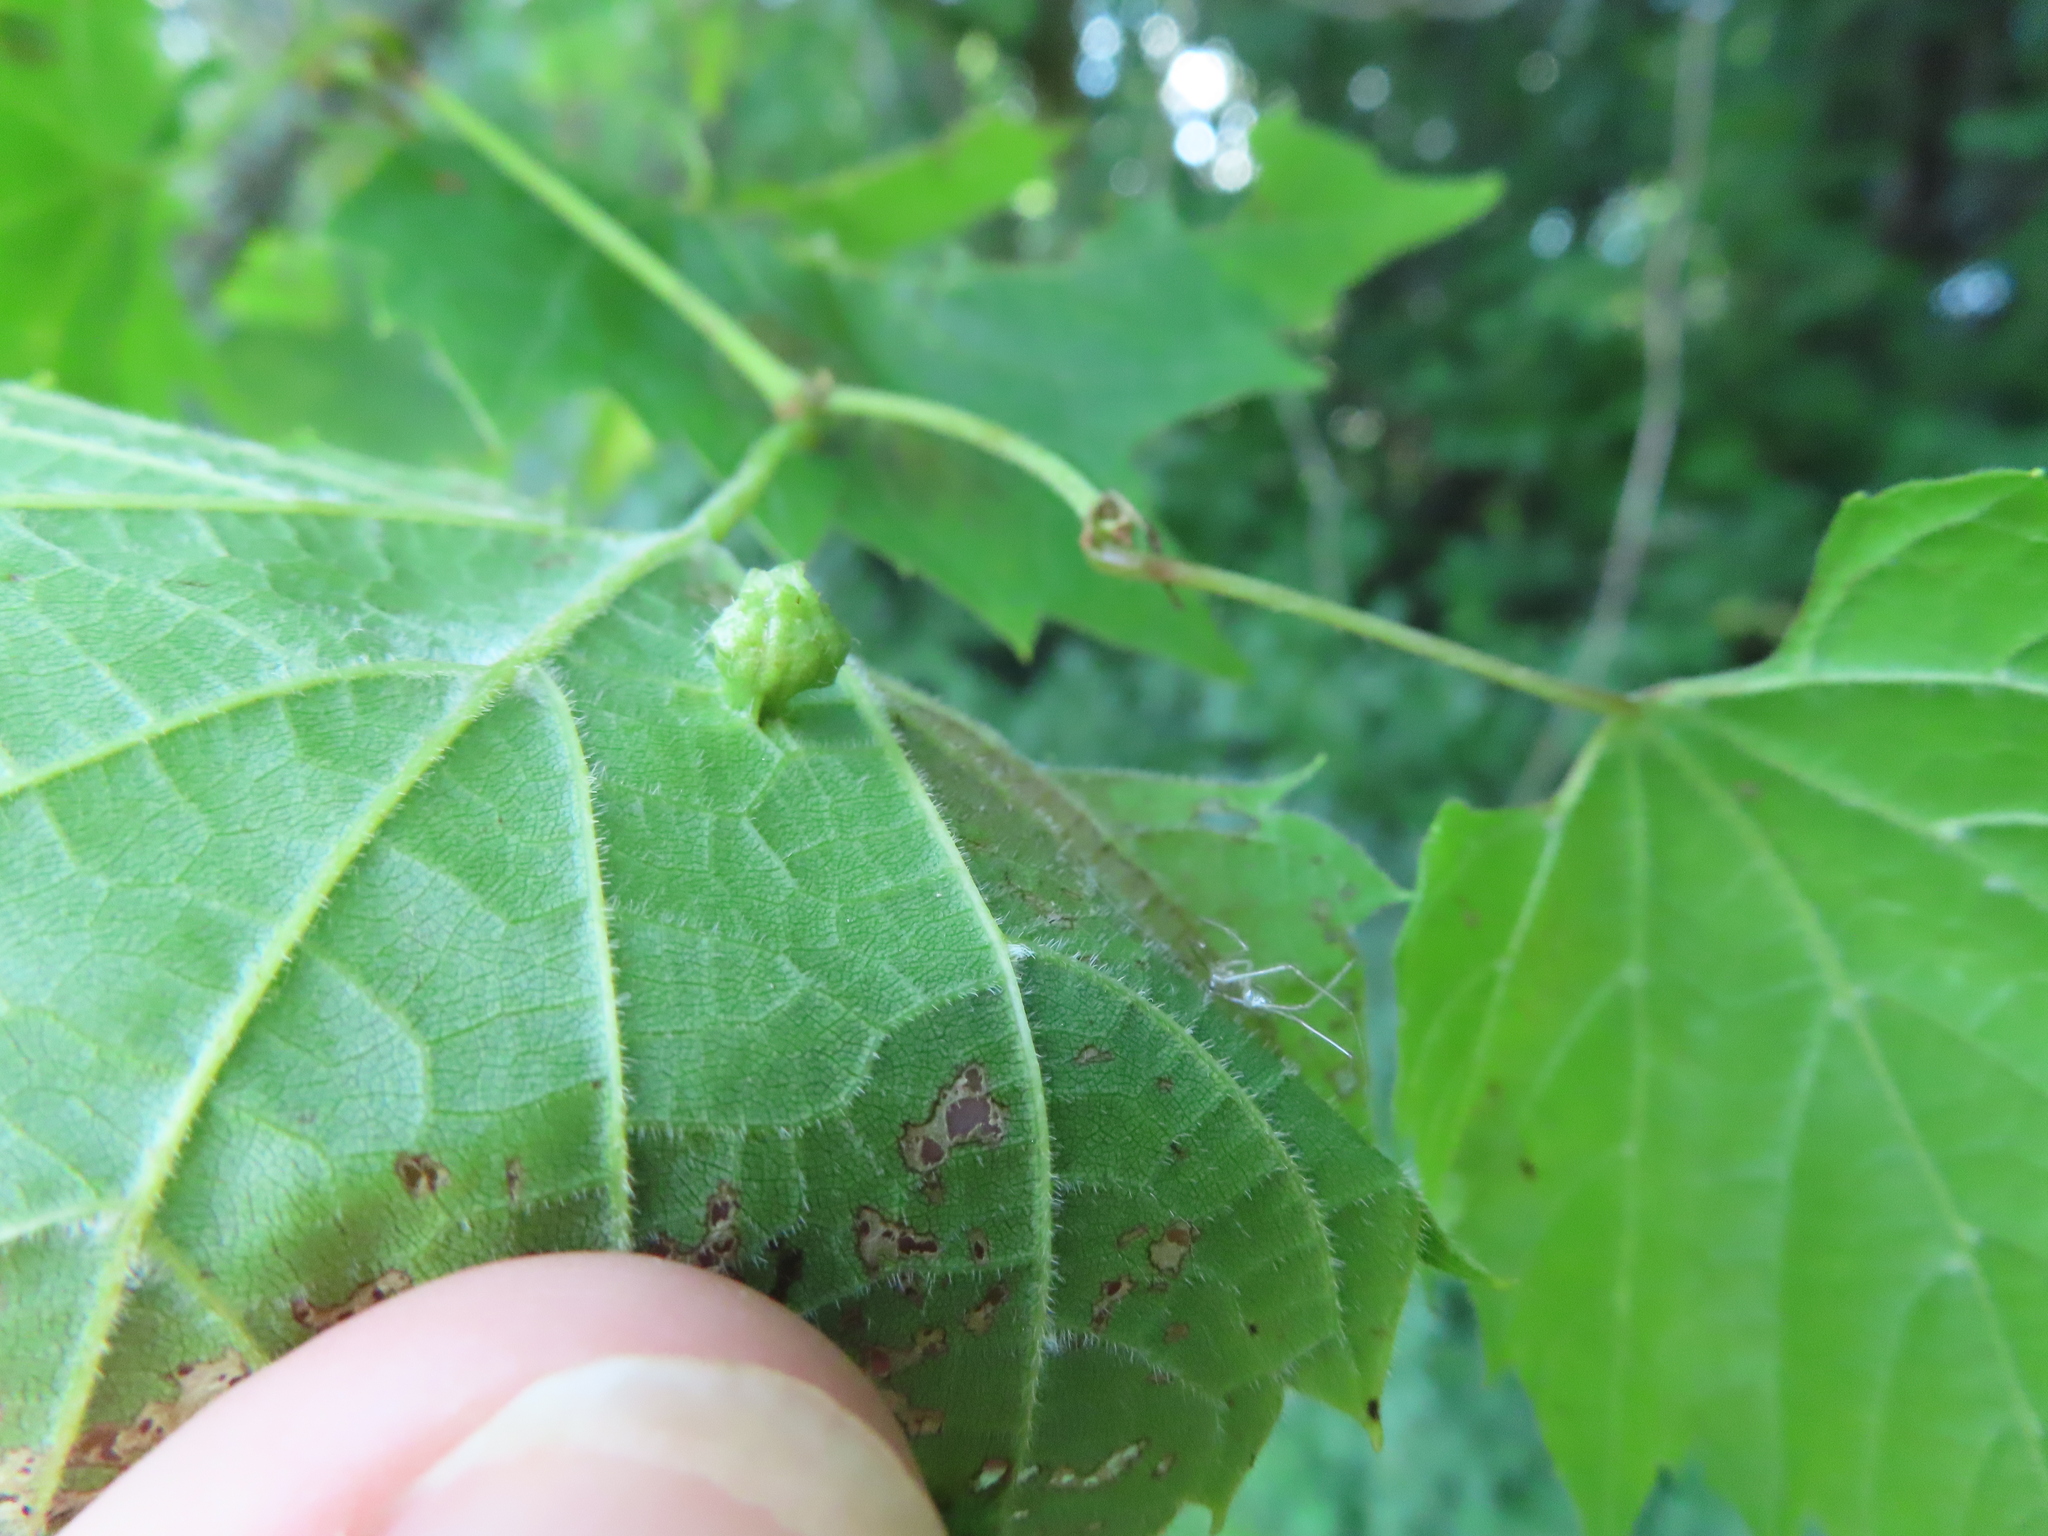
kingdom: Animalia
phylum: Arthropoda
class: Insecta
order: Hemiptera
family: Phylloxeridae
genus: Daktulosphaira
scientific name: Daktulosphaira vitifoliae
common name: Grape phylloxera
